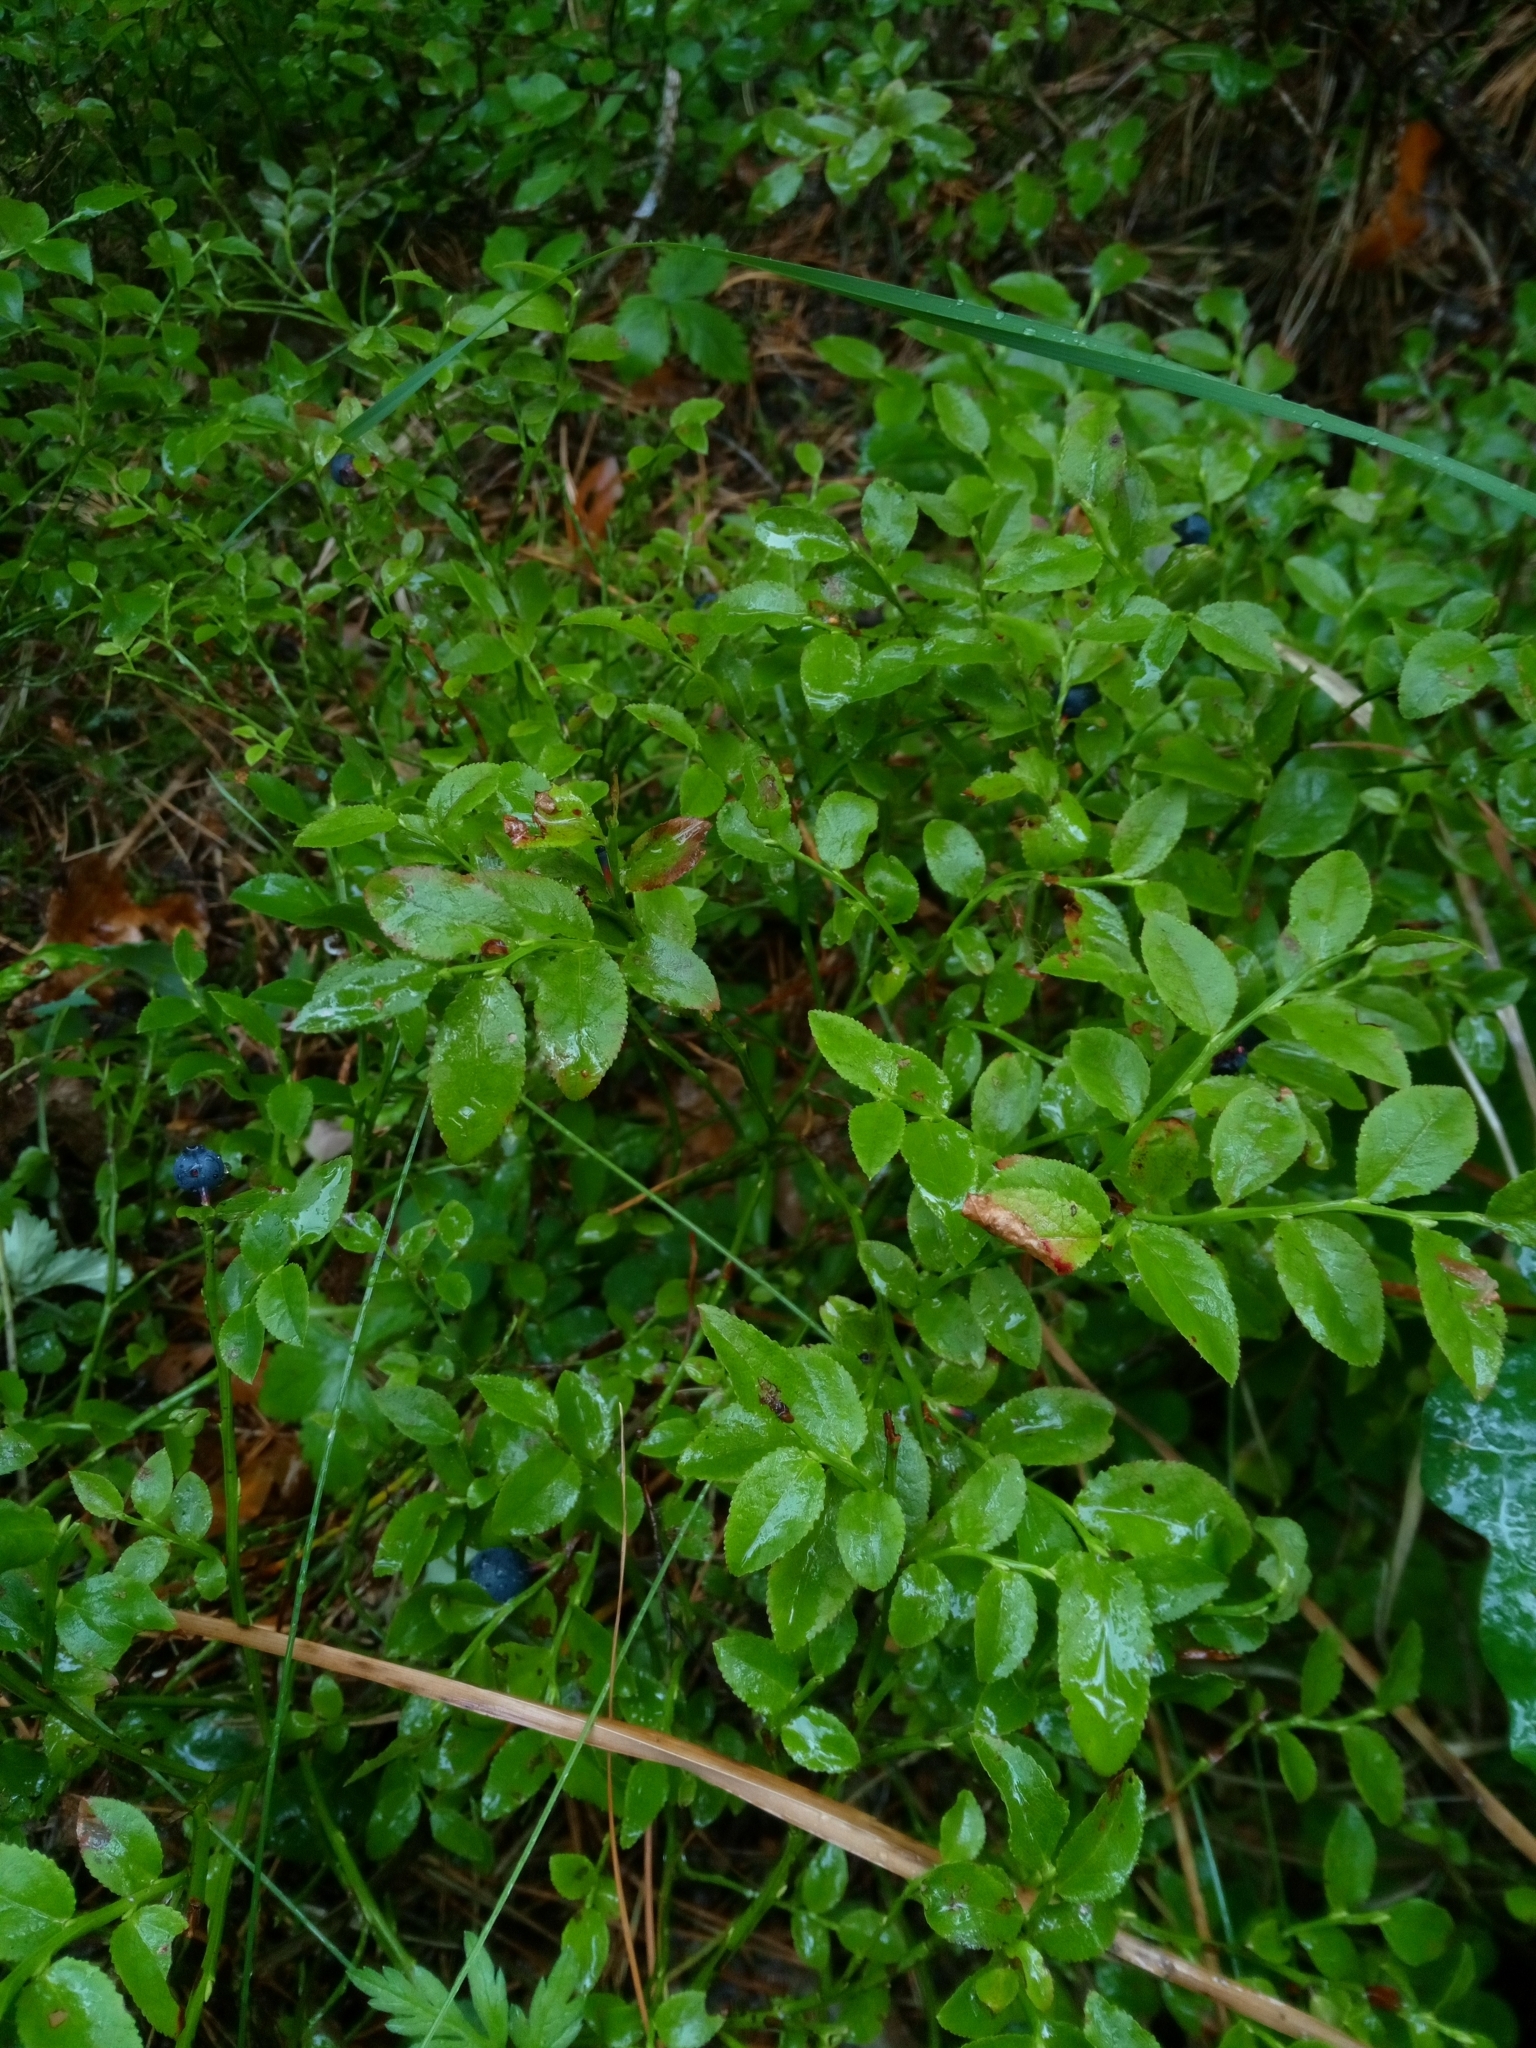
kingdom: Plantae
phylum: Tracheophyta
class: Magnoliopsida
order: Ericales
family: Ericaceae
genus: Vaccinium
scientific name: Vaccinium myrtillus
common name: Bilberry
